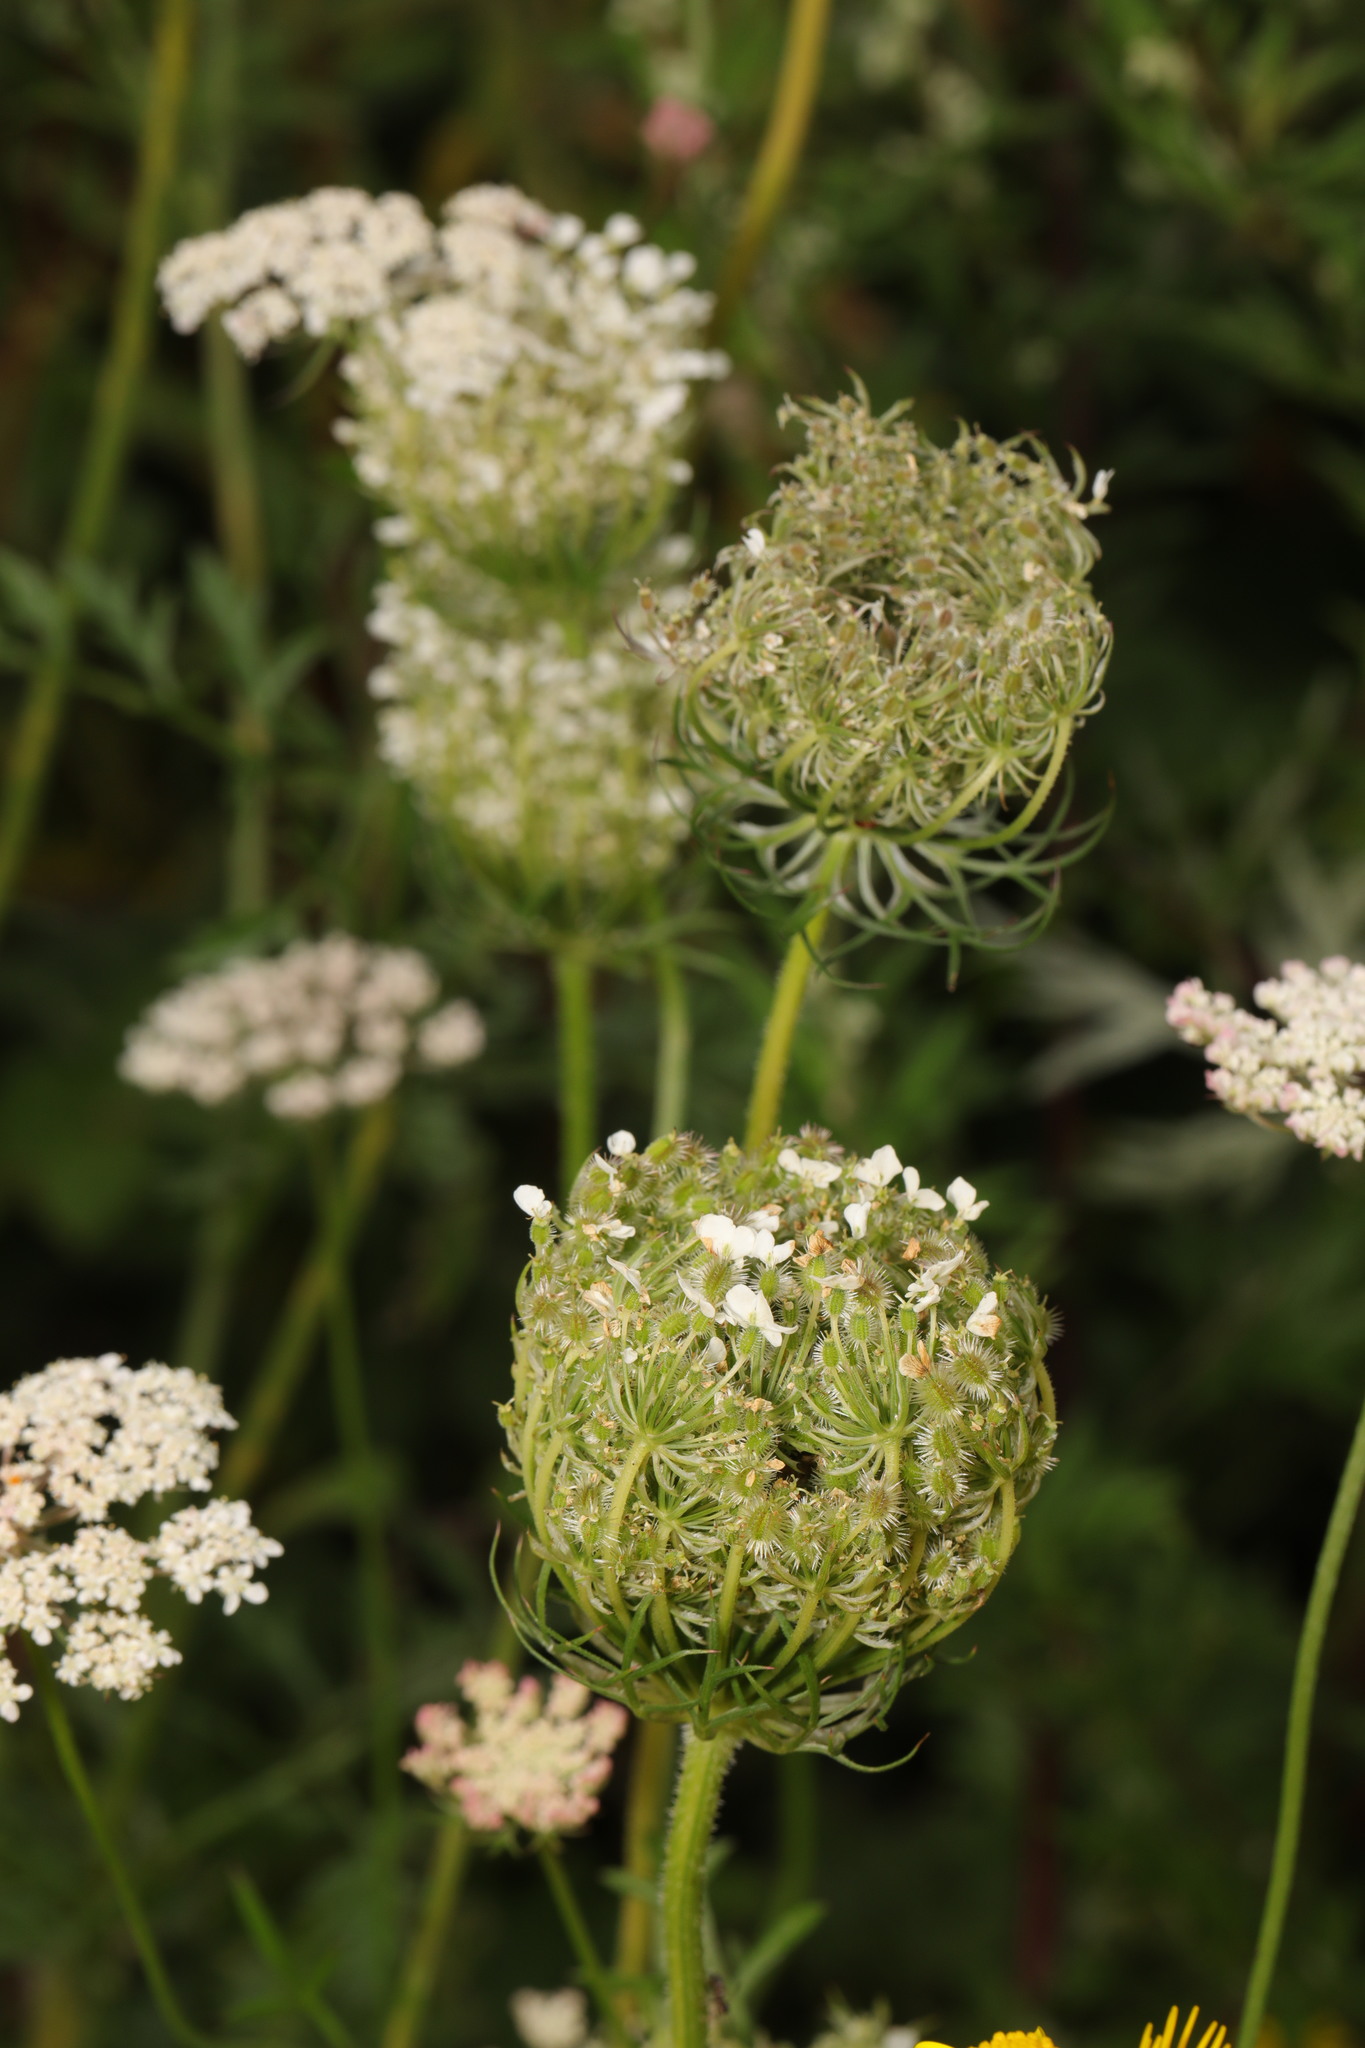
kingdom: Plantae
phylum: Tracheophyta
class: Magnoliopsida
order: Apiales
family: Apiaceae
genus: Daucus
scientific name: Daucus carota
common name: Wild carrot
